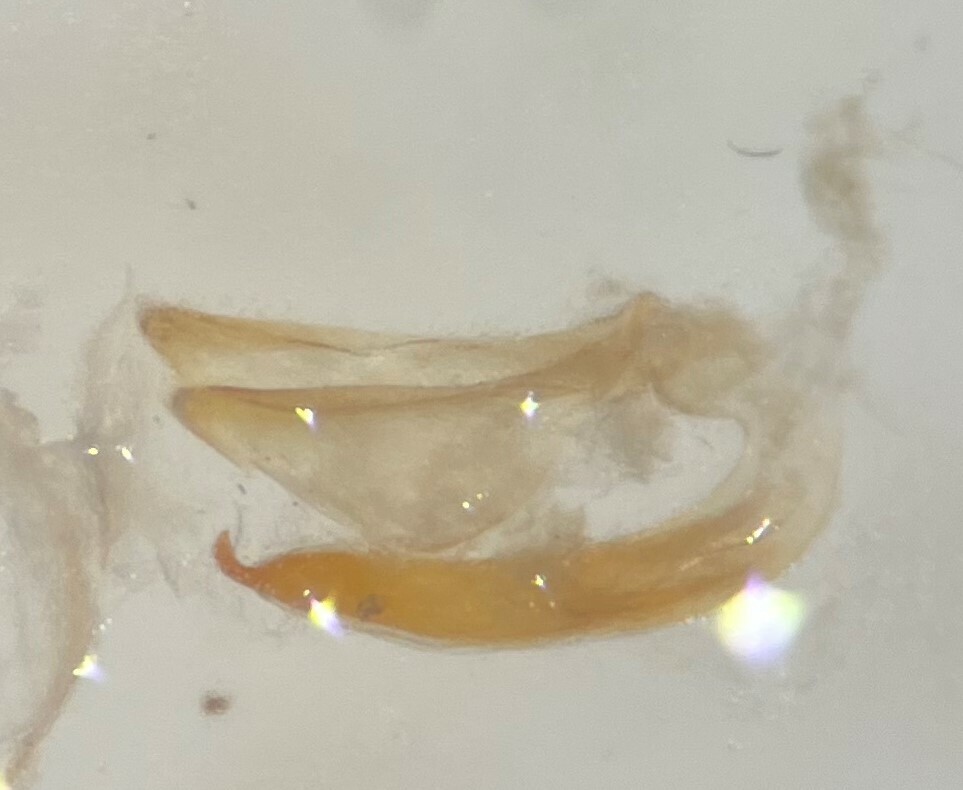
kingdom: Animalia
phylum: Arthropoda
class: Insecta
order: Coleoptera
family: Dytiscidae
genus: Heterosternuta
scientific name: Heterosternuta wickhami
